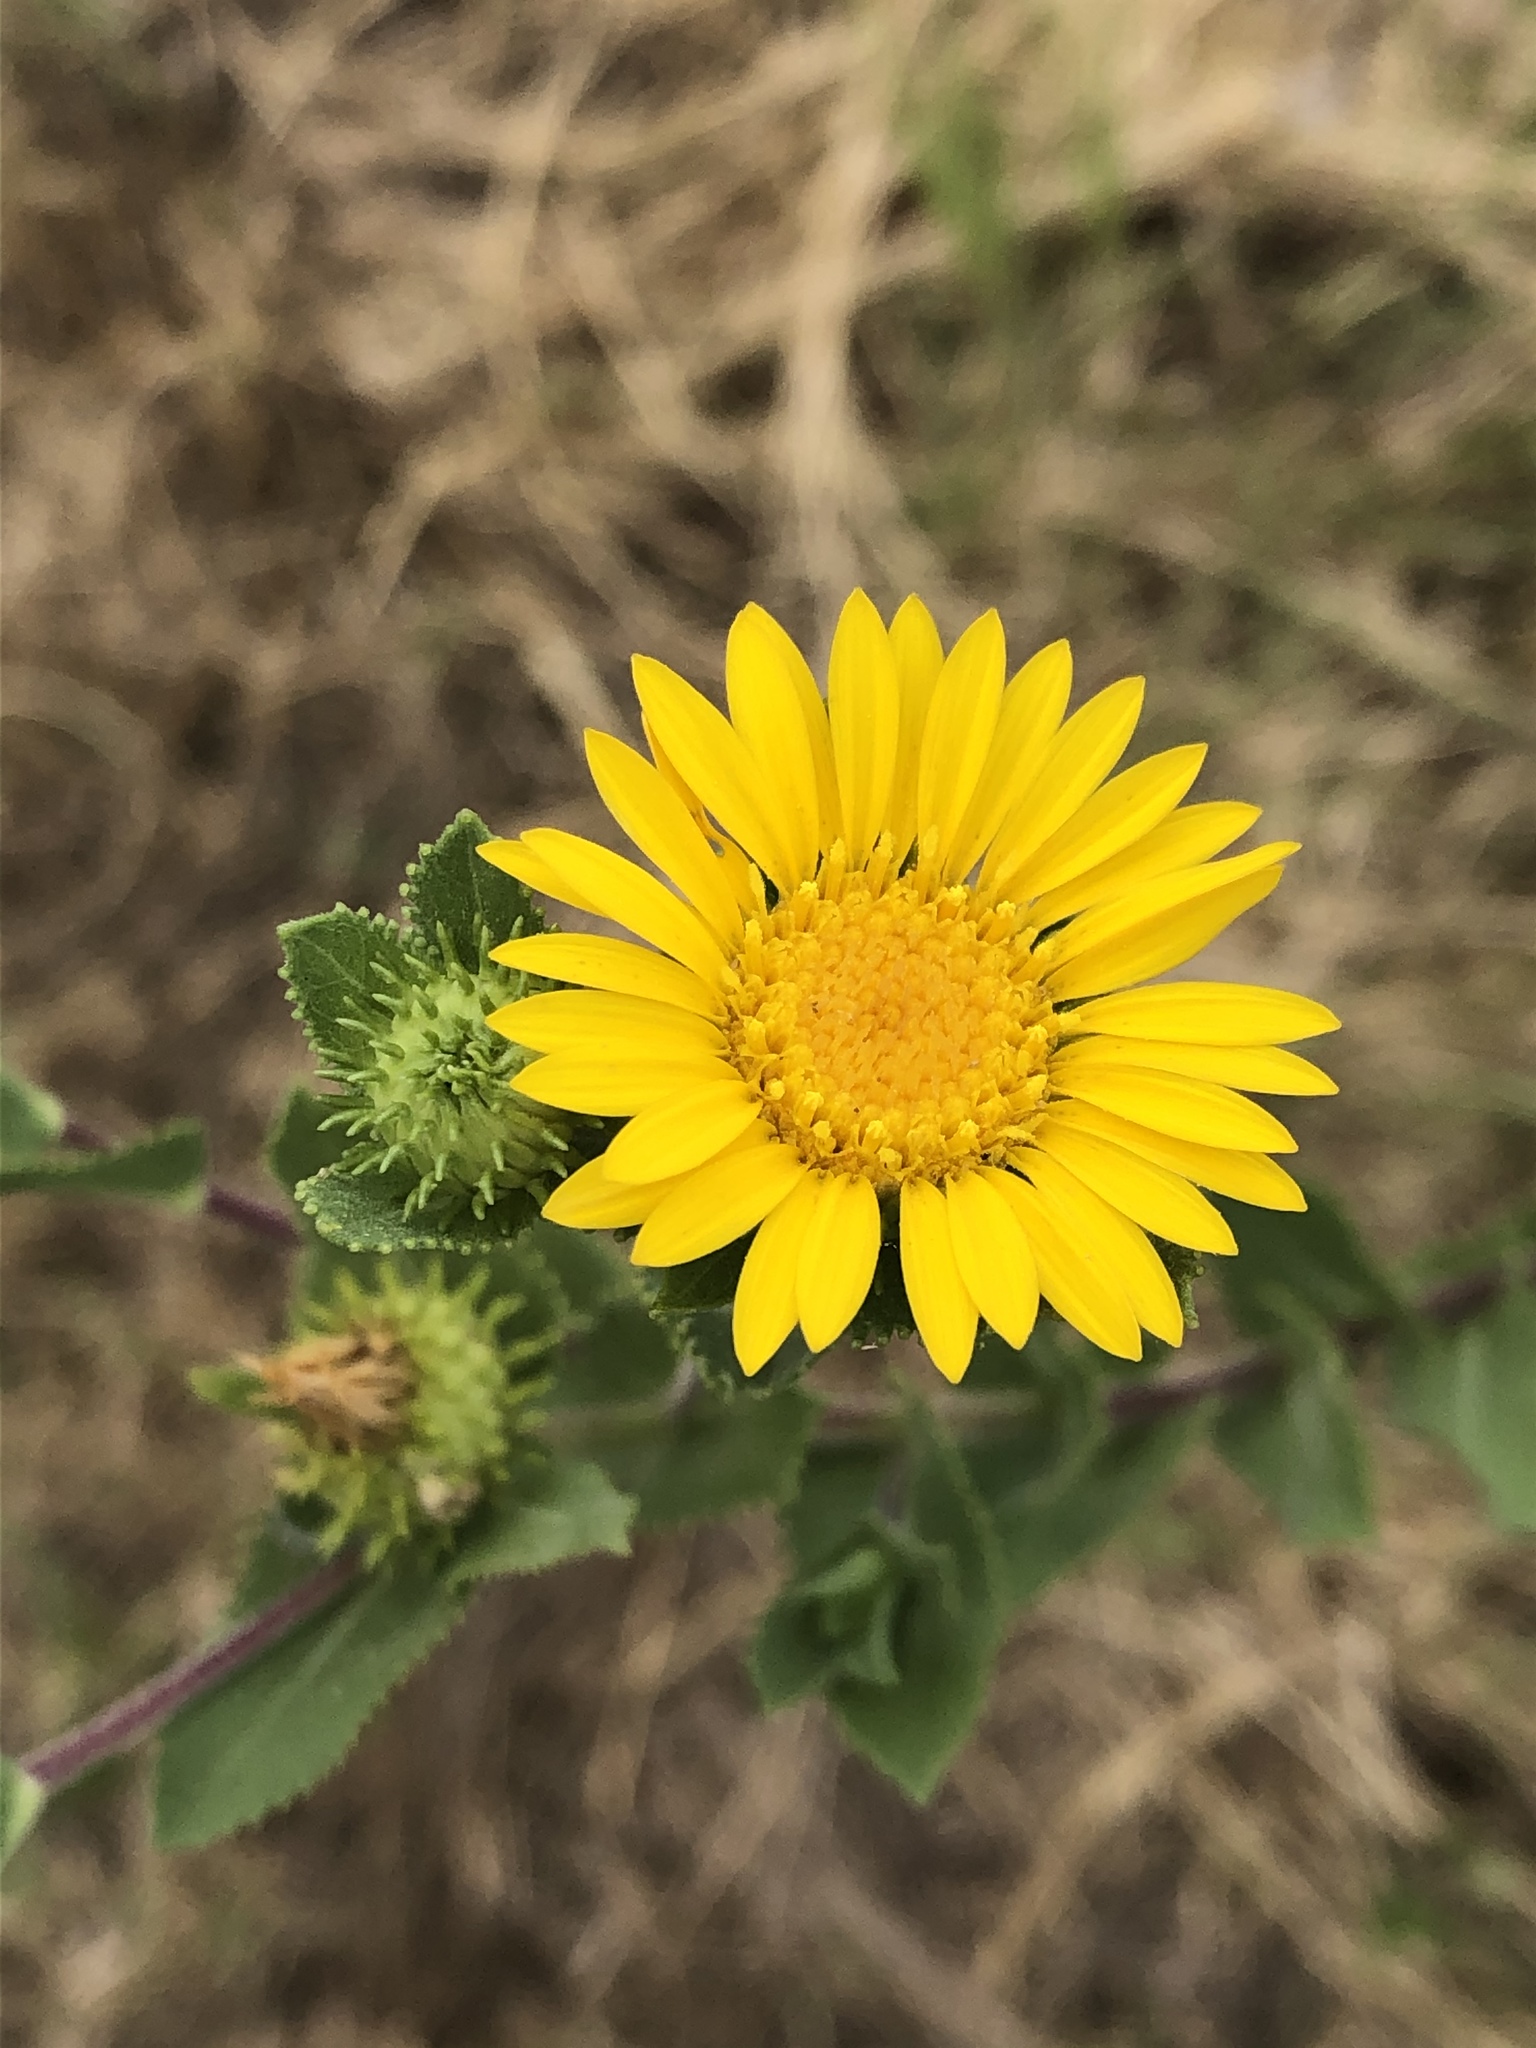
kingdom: Plantae
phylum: Tracheophyta
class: Magnoliopsida
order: Asterales
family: Asteraceae
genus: Grindelia
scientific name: Grindelia adenodonta
